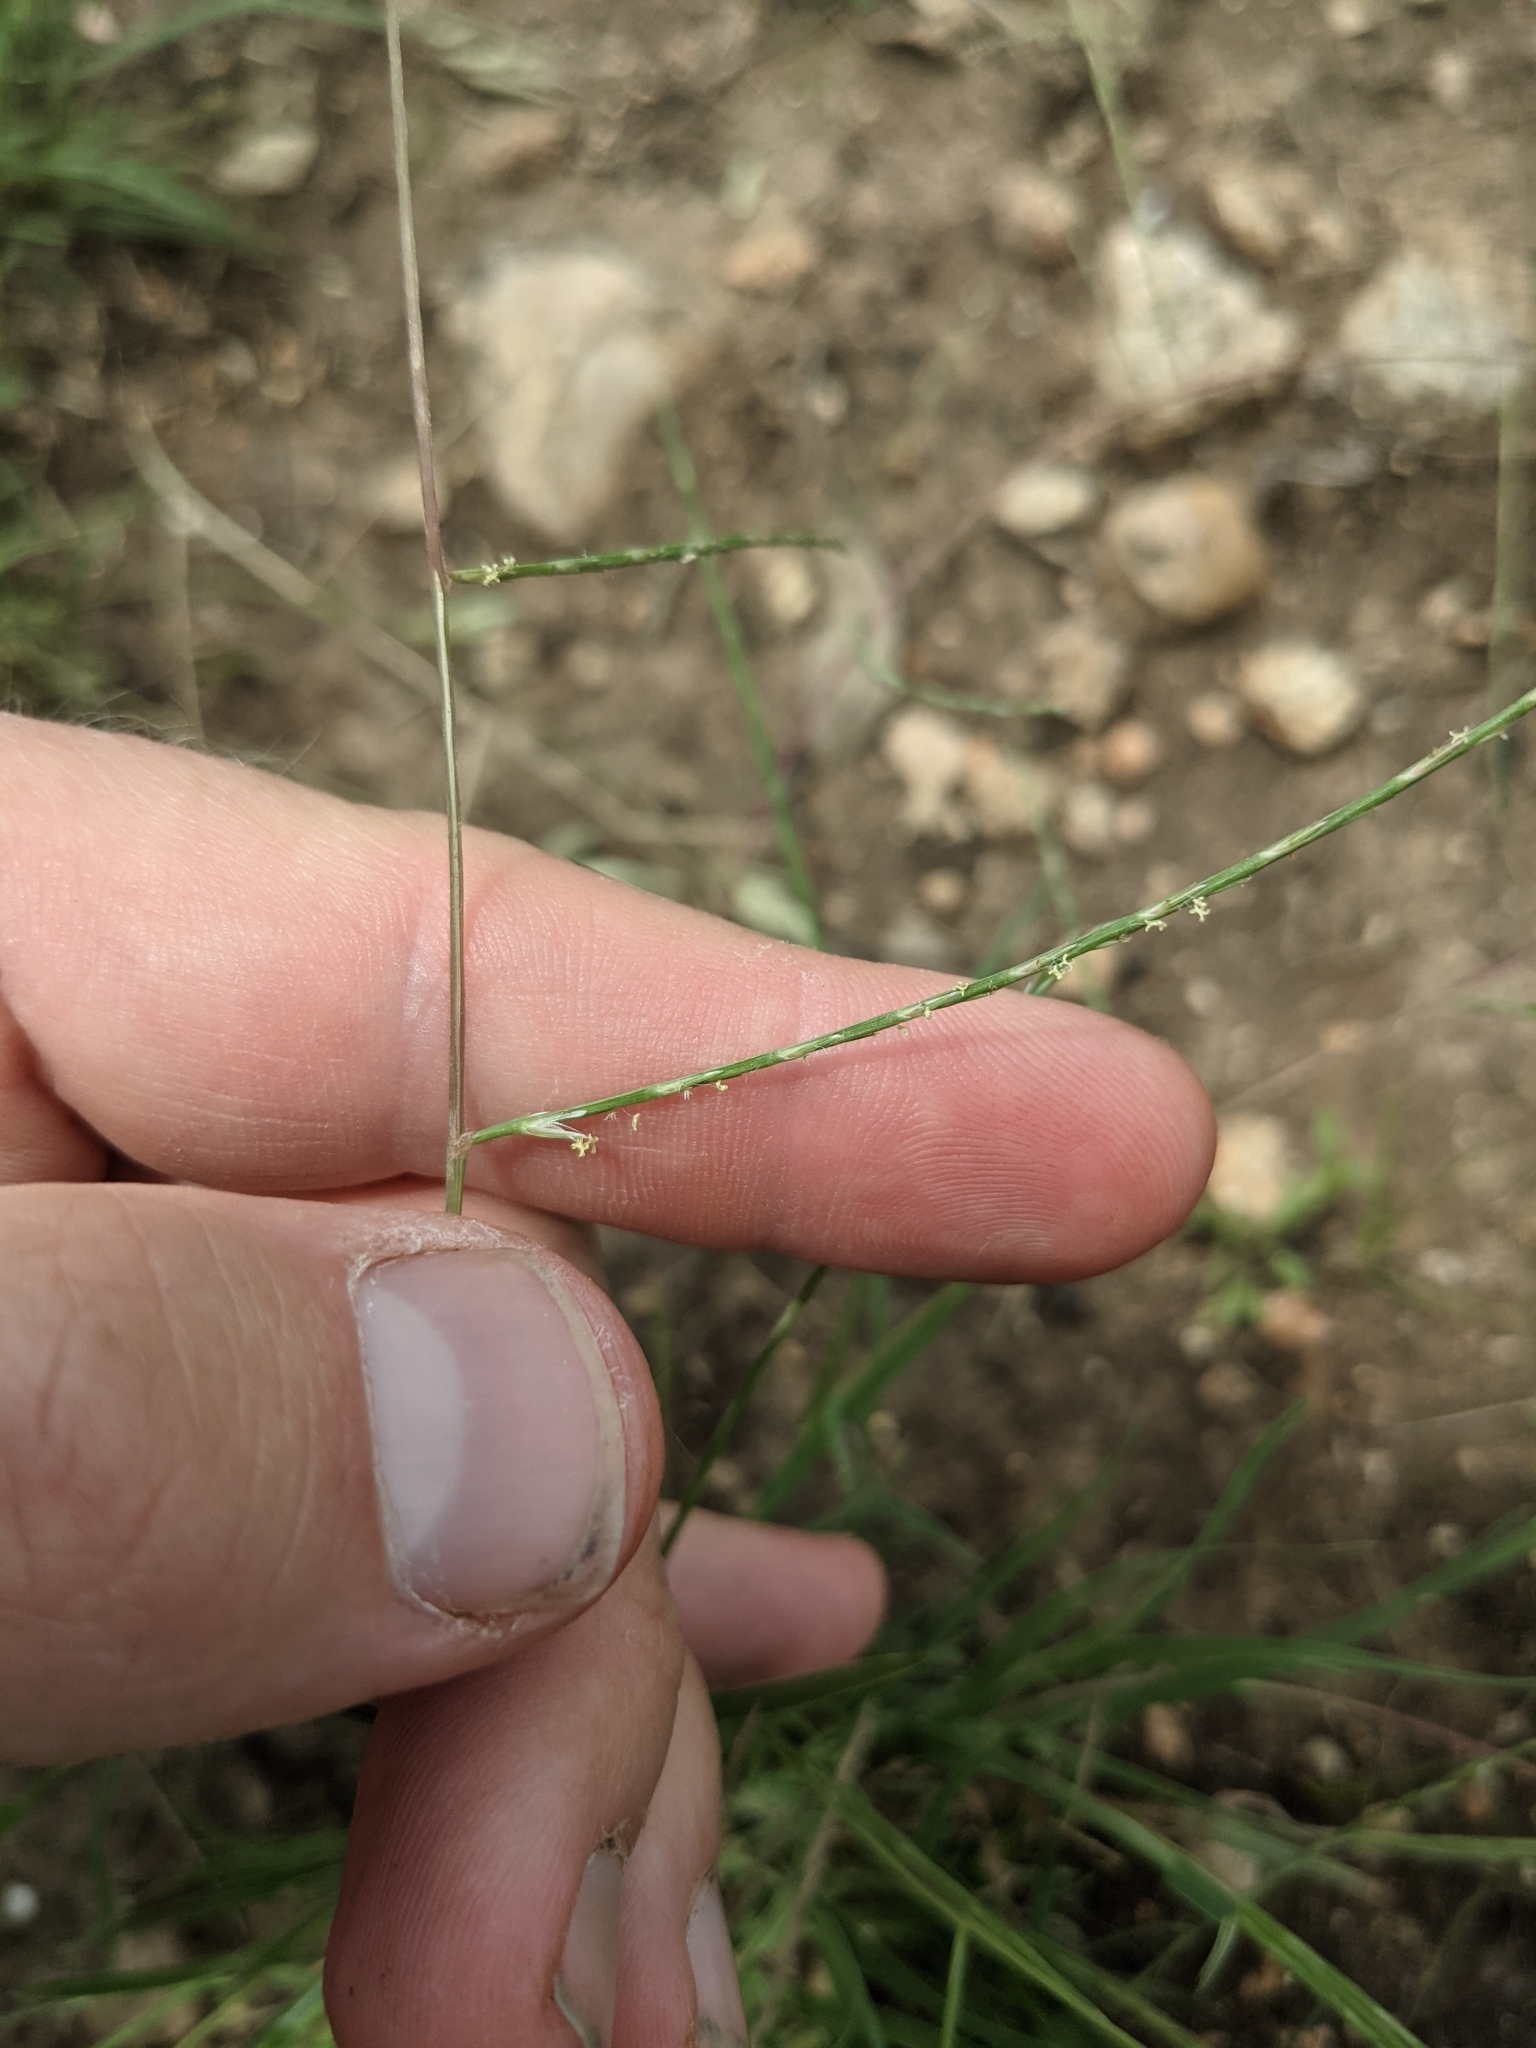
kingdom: Plantae
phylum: Tracheophyta
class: Liliopsida
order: Poales
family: Poaceae
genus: Muhlenbergia
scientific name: Muhlenbergia paniculata
